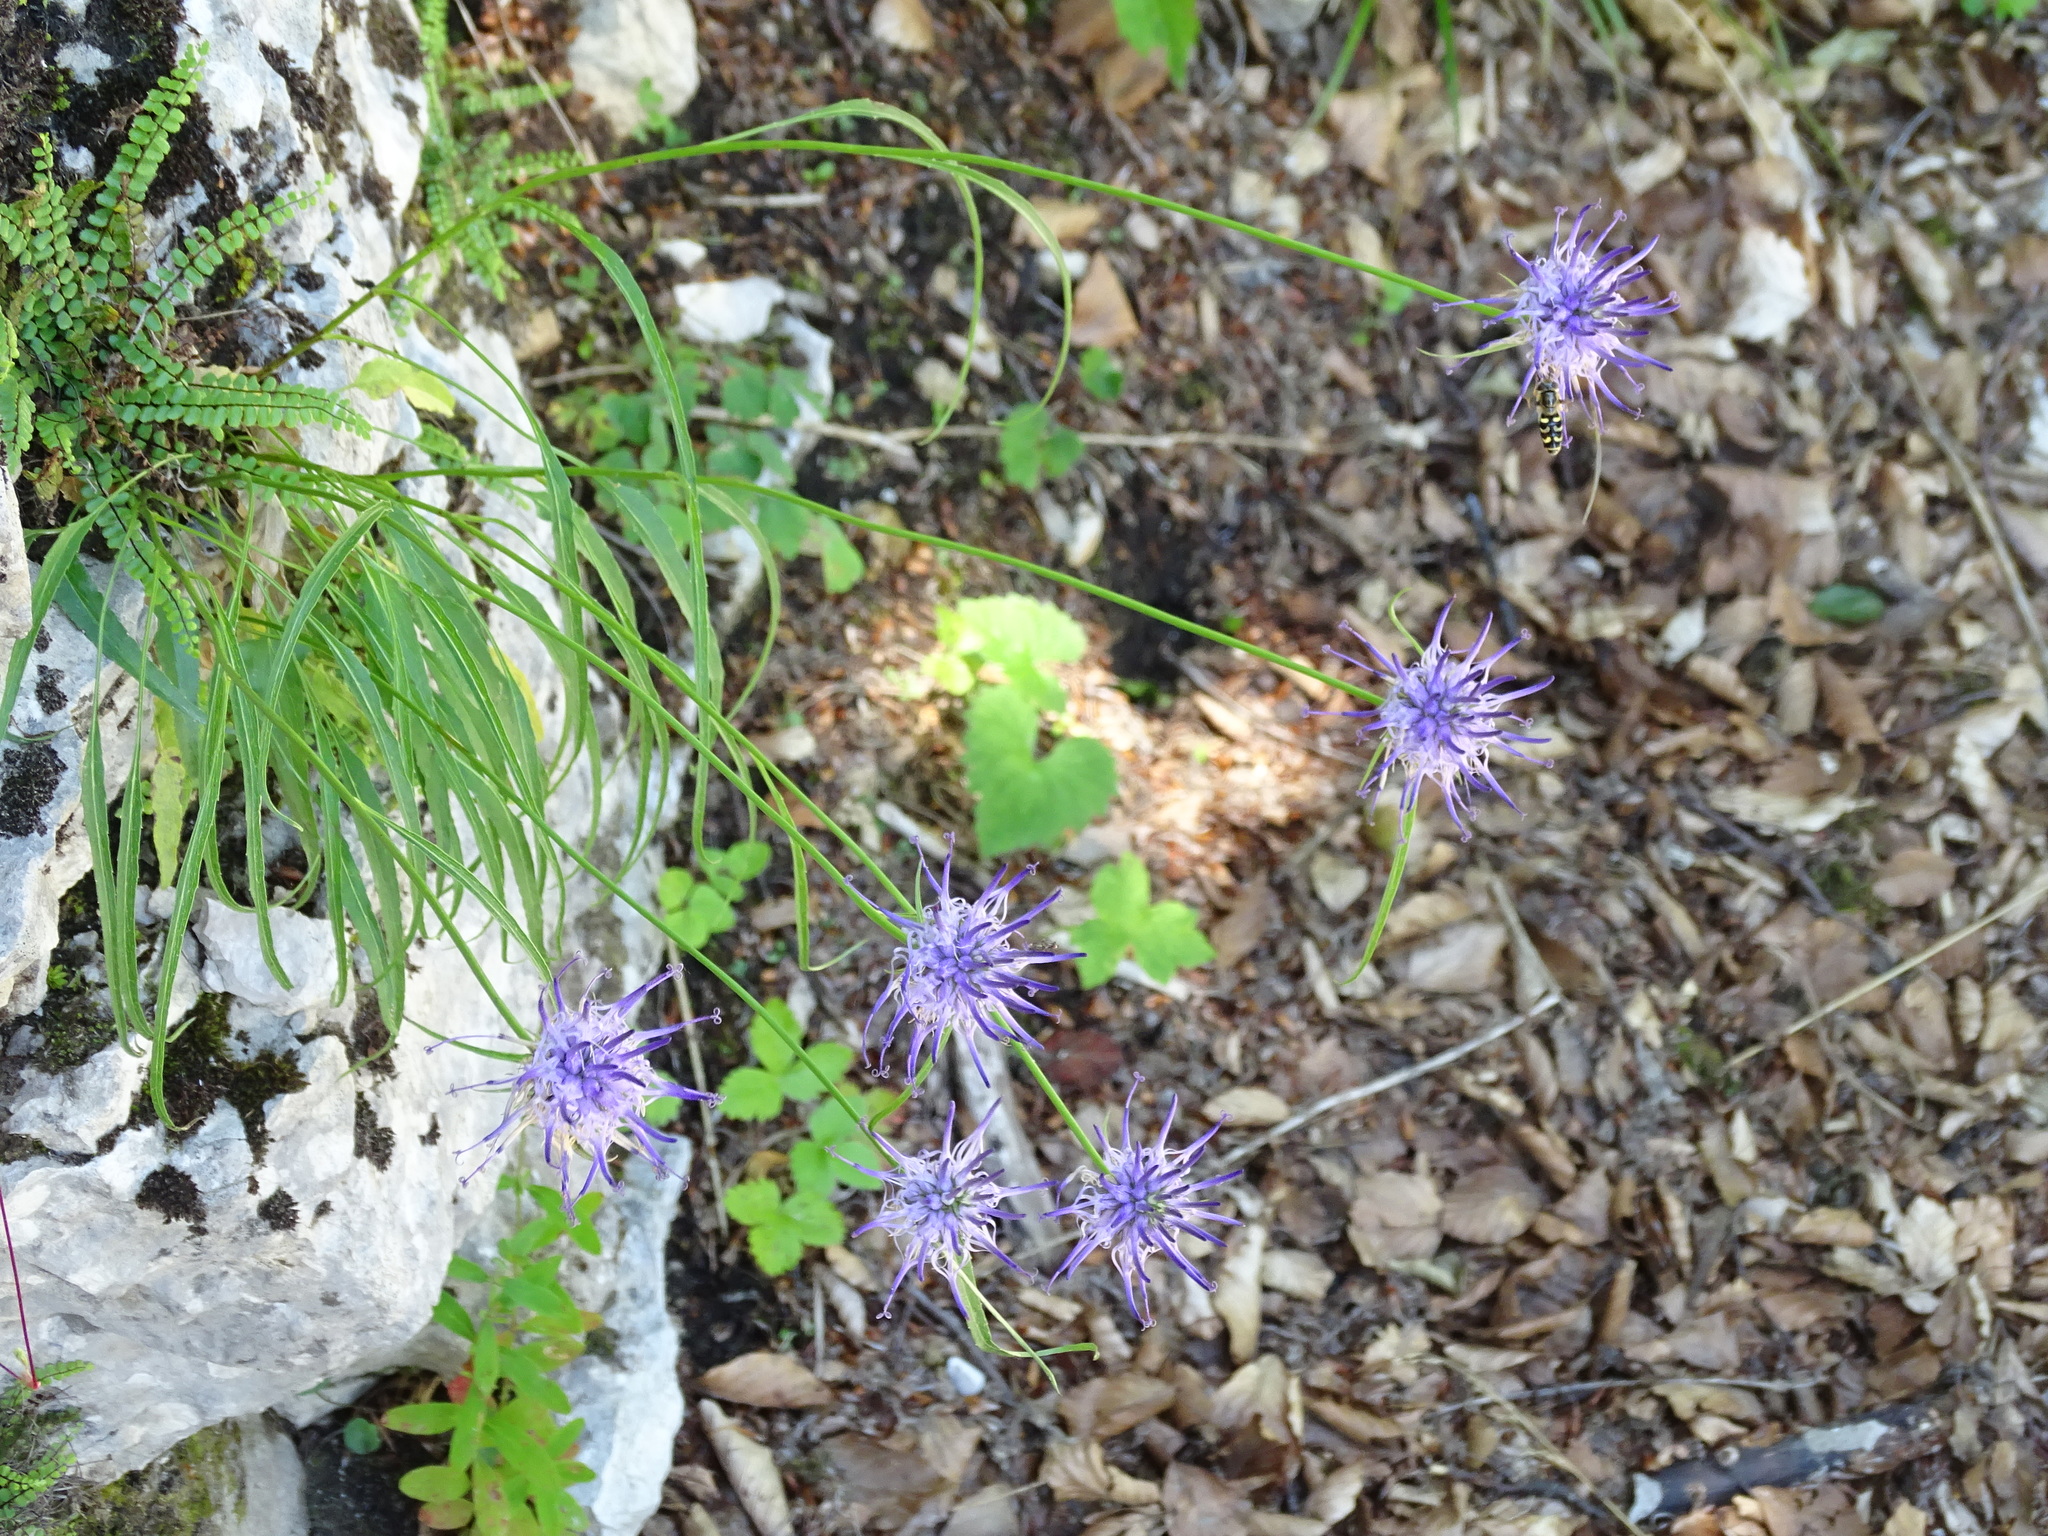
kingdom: Plantae
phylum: Tracheophyta
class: Magnoliopsida
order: Asterales
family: Campanulaceae
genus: Phyteuma
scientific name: Phyteuma scheuchzeri
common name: Oxford rampion
